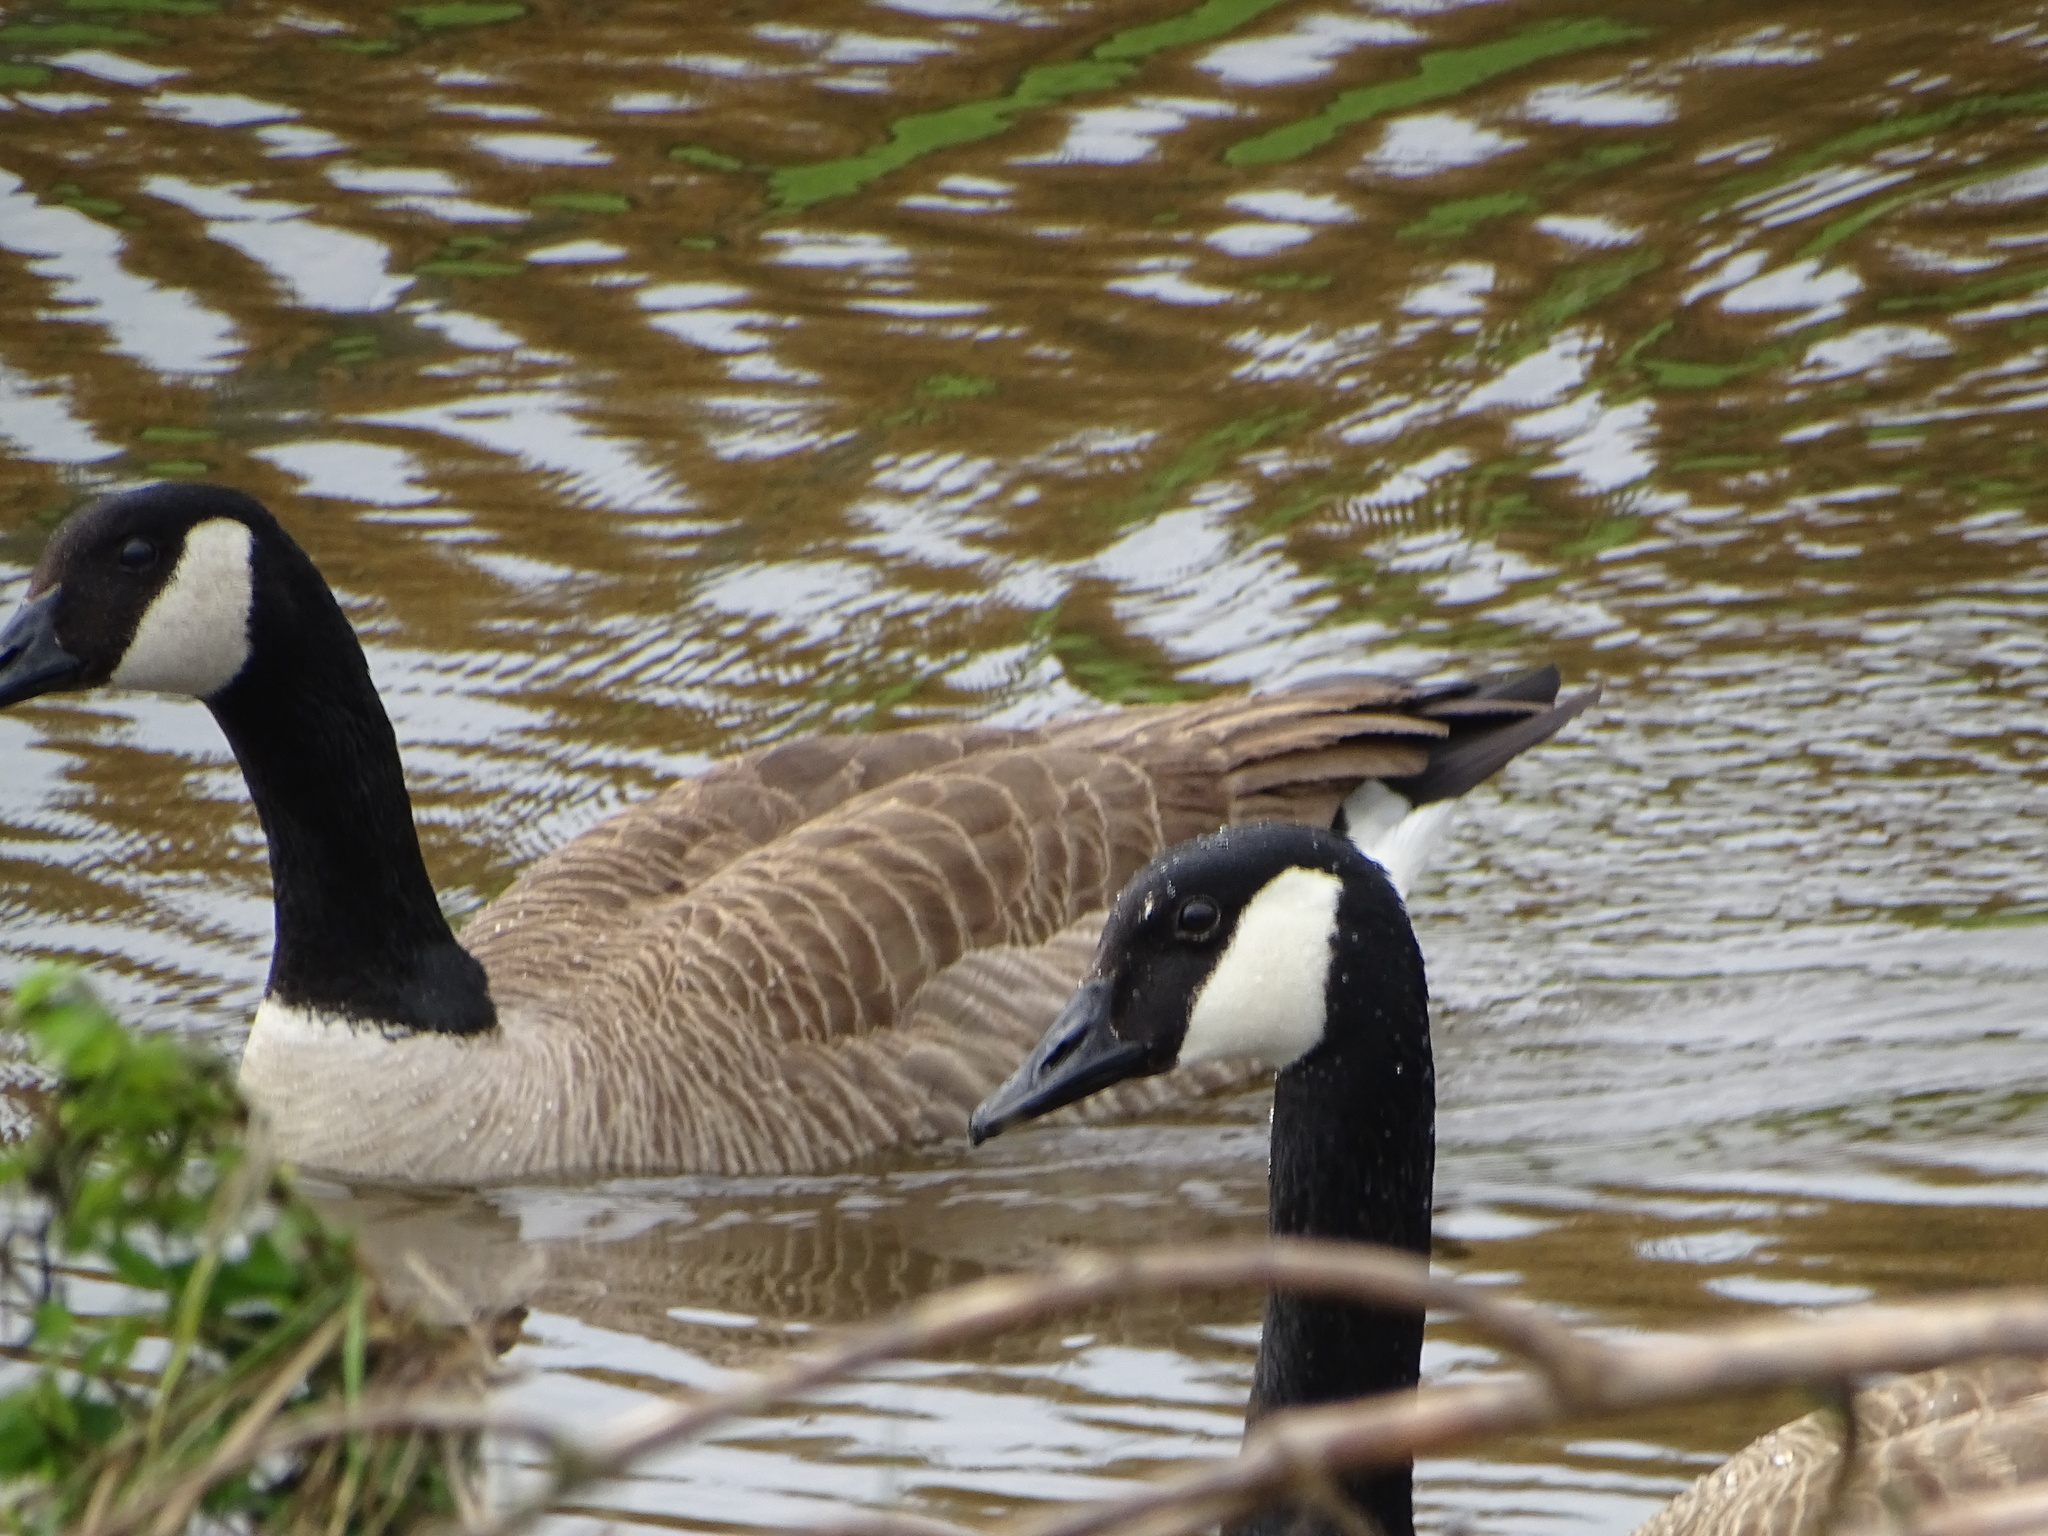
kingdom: Animalia
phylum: Chordata
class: Aves
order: Anseriformes
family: Anatidae
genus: Branta
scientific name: Branta canadensis
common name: Canada goose
